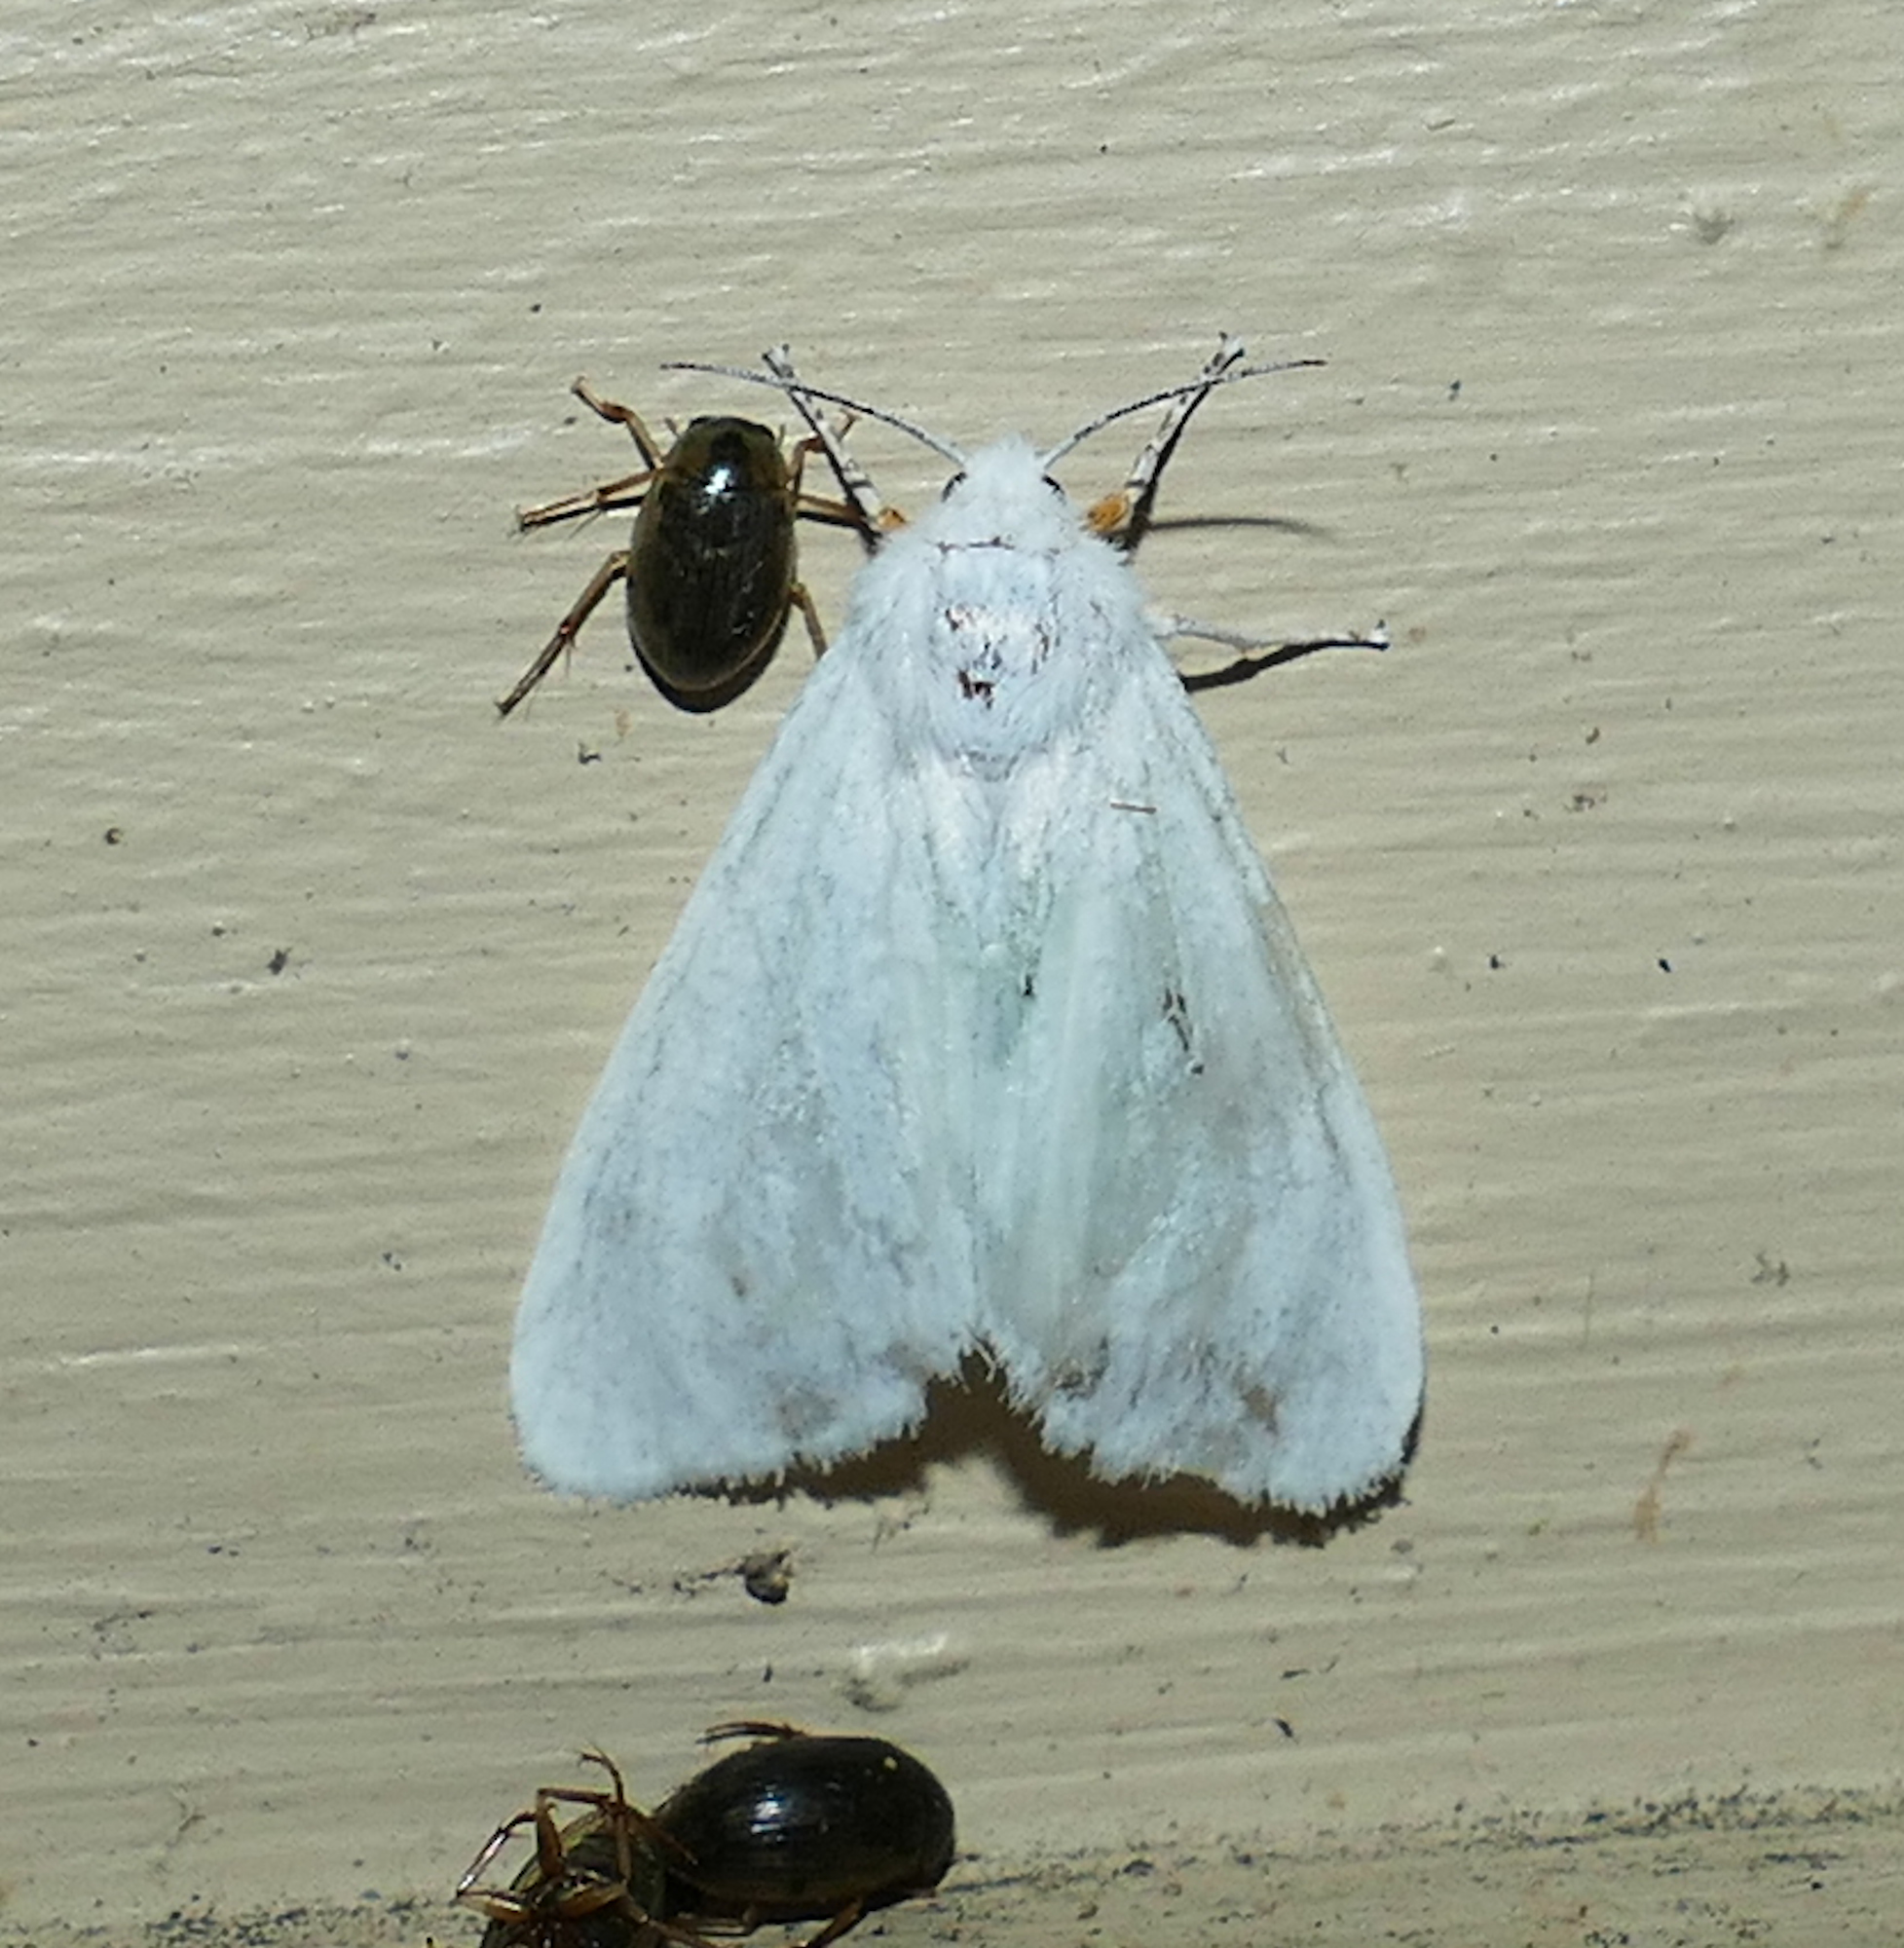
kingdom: Animalia
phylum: Arthropoda
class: Insecta
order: Lepidoptera
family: Erebidae
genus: Spilosoma
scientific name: Spilosoma congrua
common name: Agreeable tiger moth
